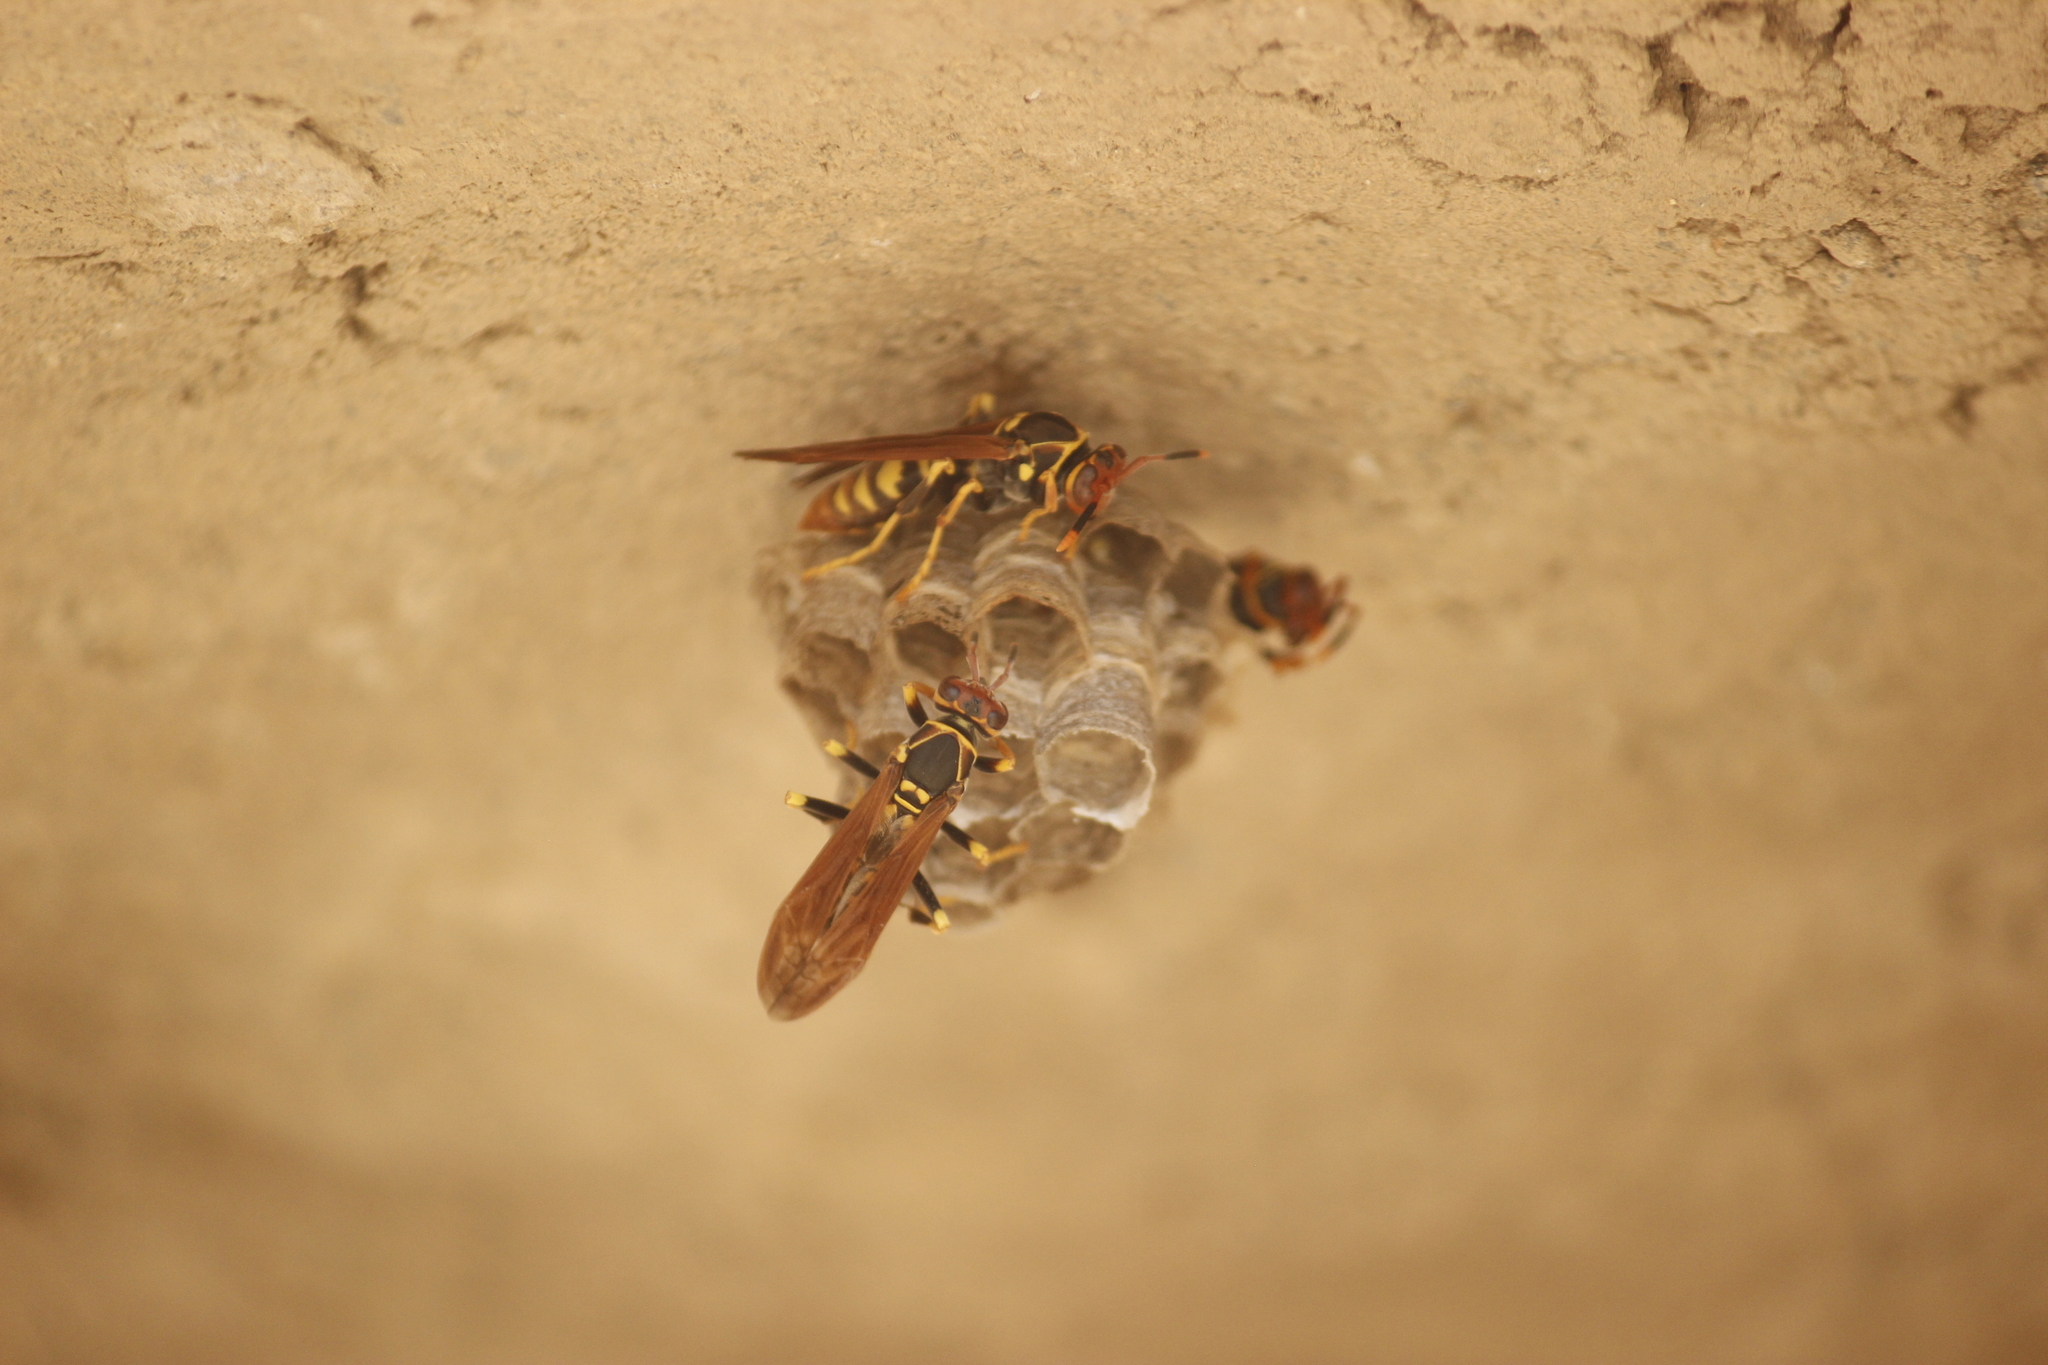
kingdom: Animalia
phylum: Arthropoda
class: Insecta
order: Hymenoptera
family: Eumenidae
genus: Polistes
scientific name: Polistes weyrauchorum
